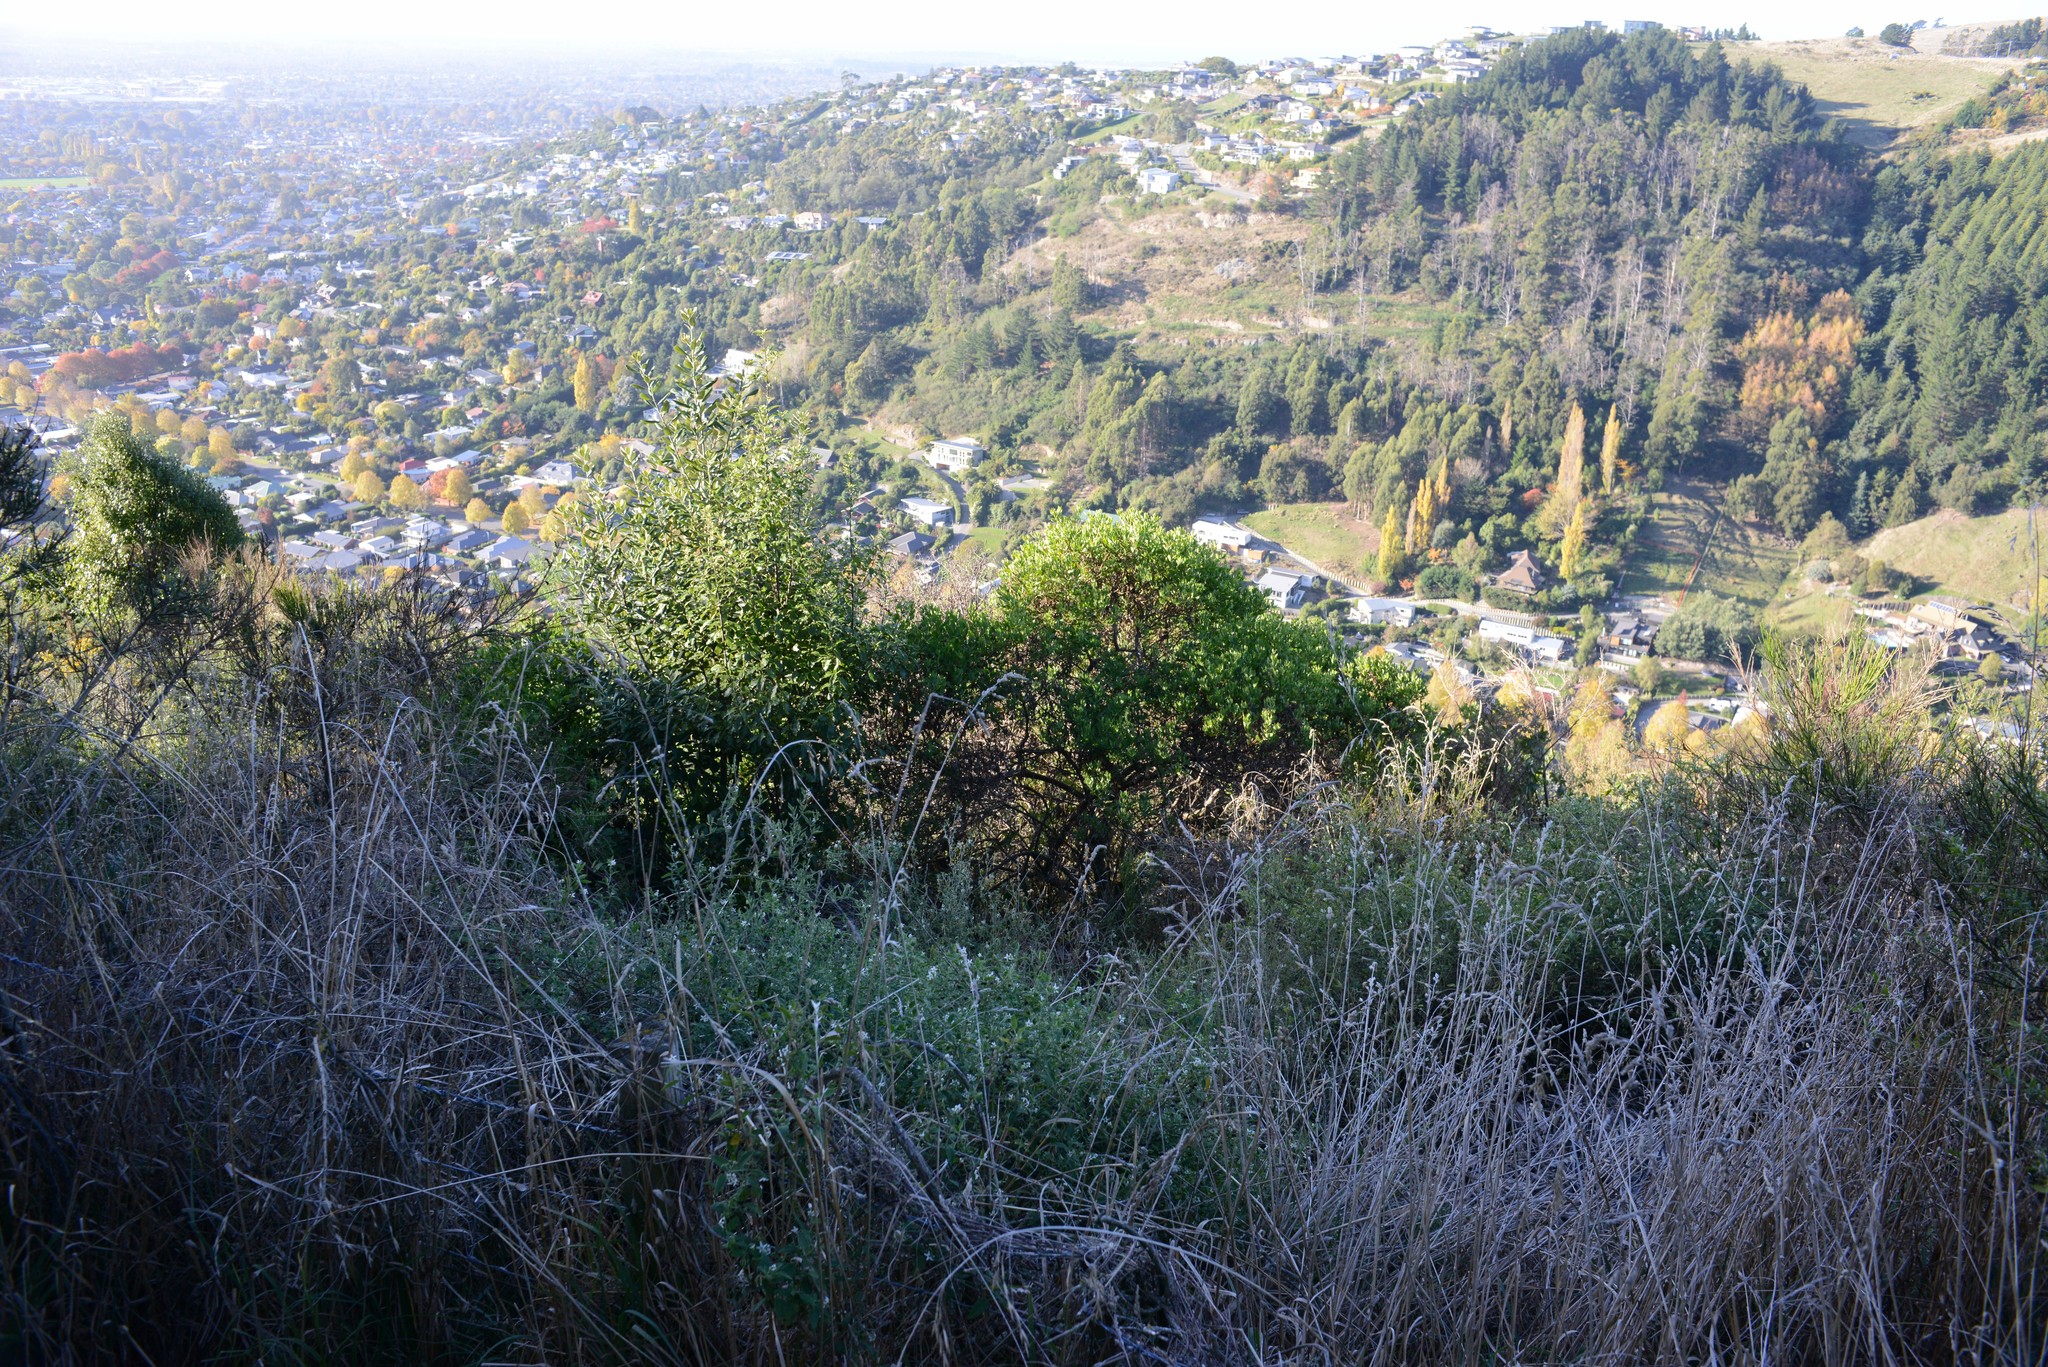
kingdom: Plantae
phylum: Tracheophyta
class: Magnoliopsida
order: Asterales
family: Asteraceae
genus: Osteospermum
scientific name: Osteospermum moniliferum
